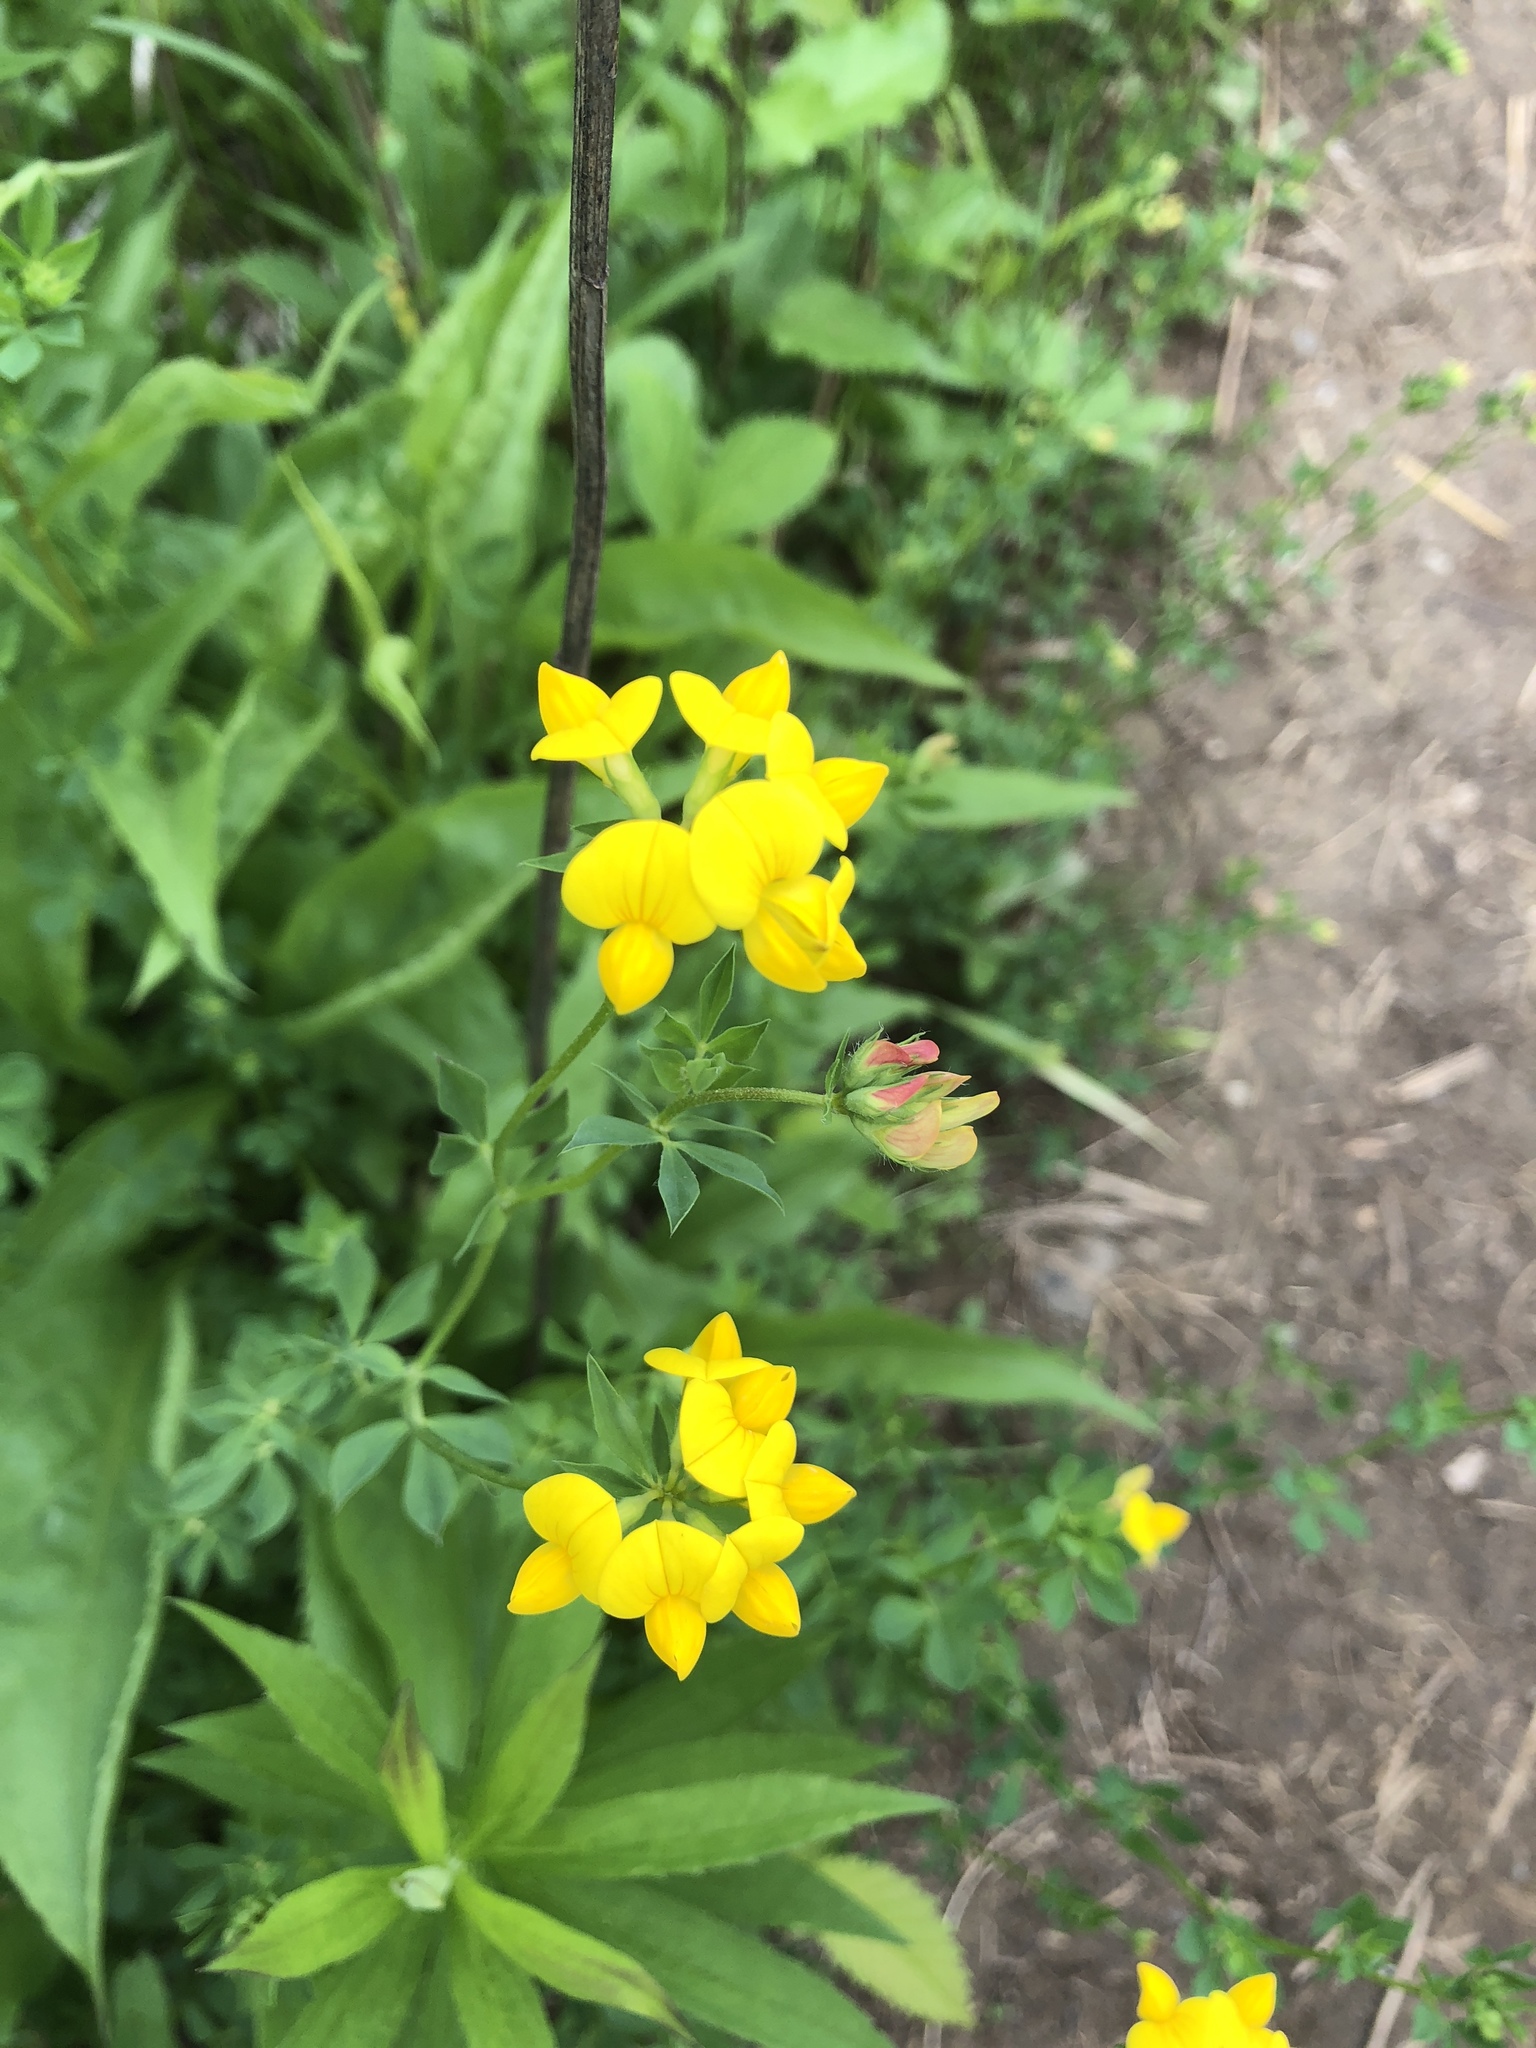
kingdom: Plantae
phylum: Tracheophyta
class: Magnoliopsida
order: Fabales
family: Fabaceae
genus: Lotus
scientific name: Lotus corniculatus
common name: Common bird's-foot-trefoil
